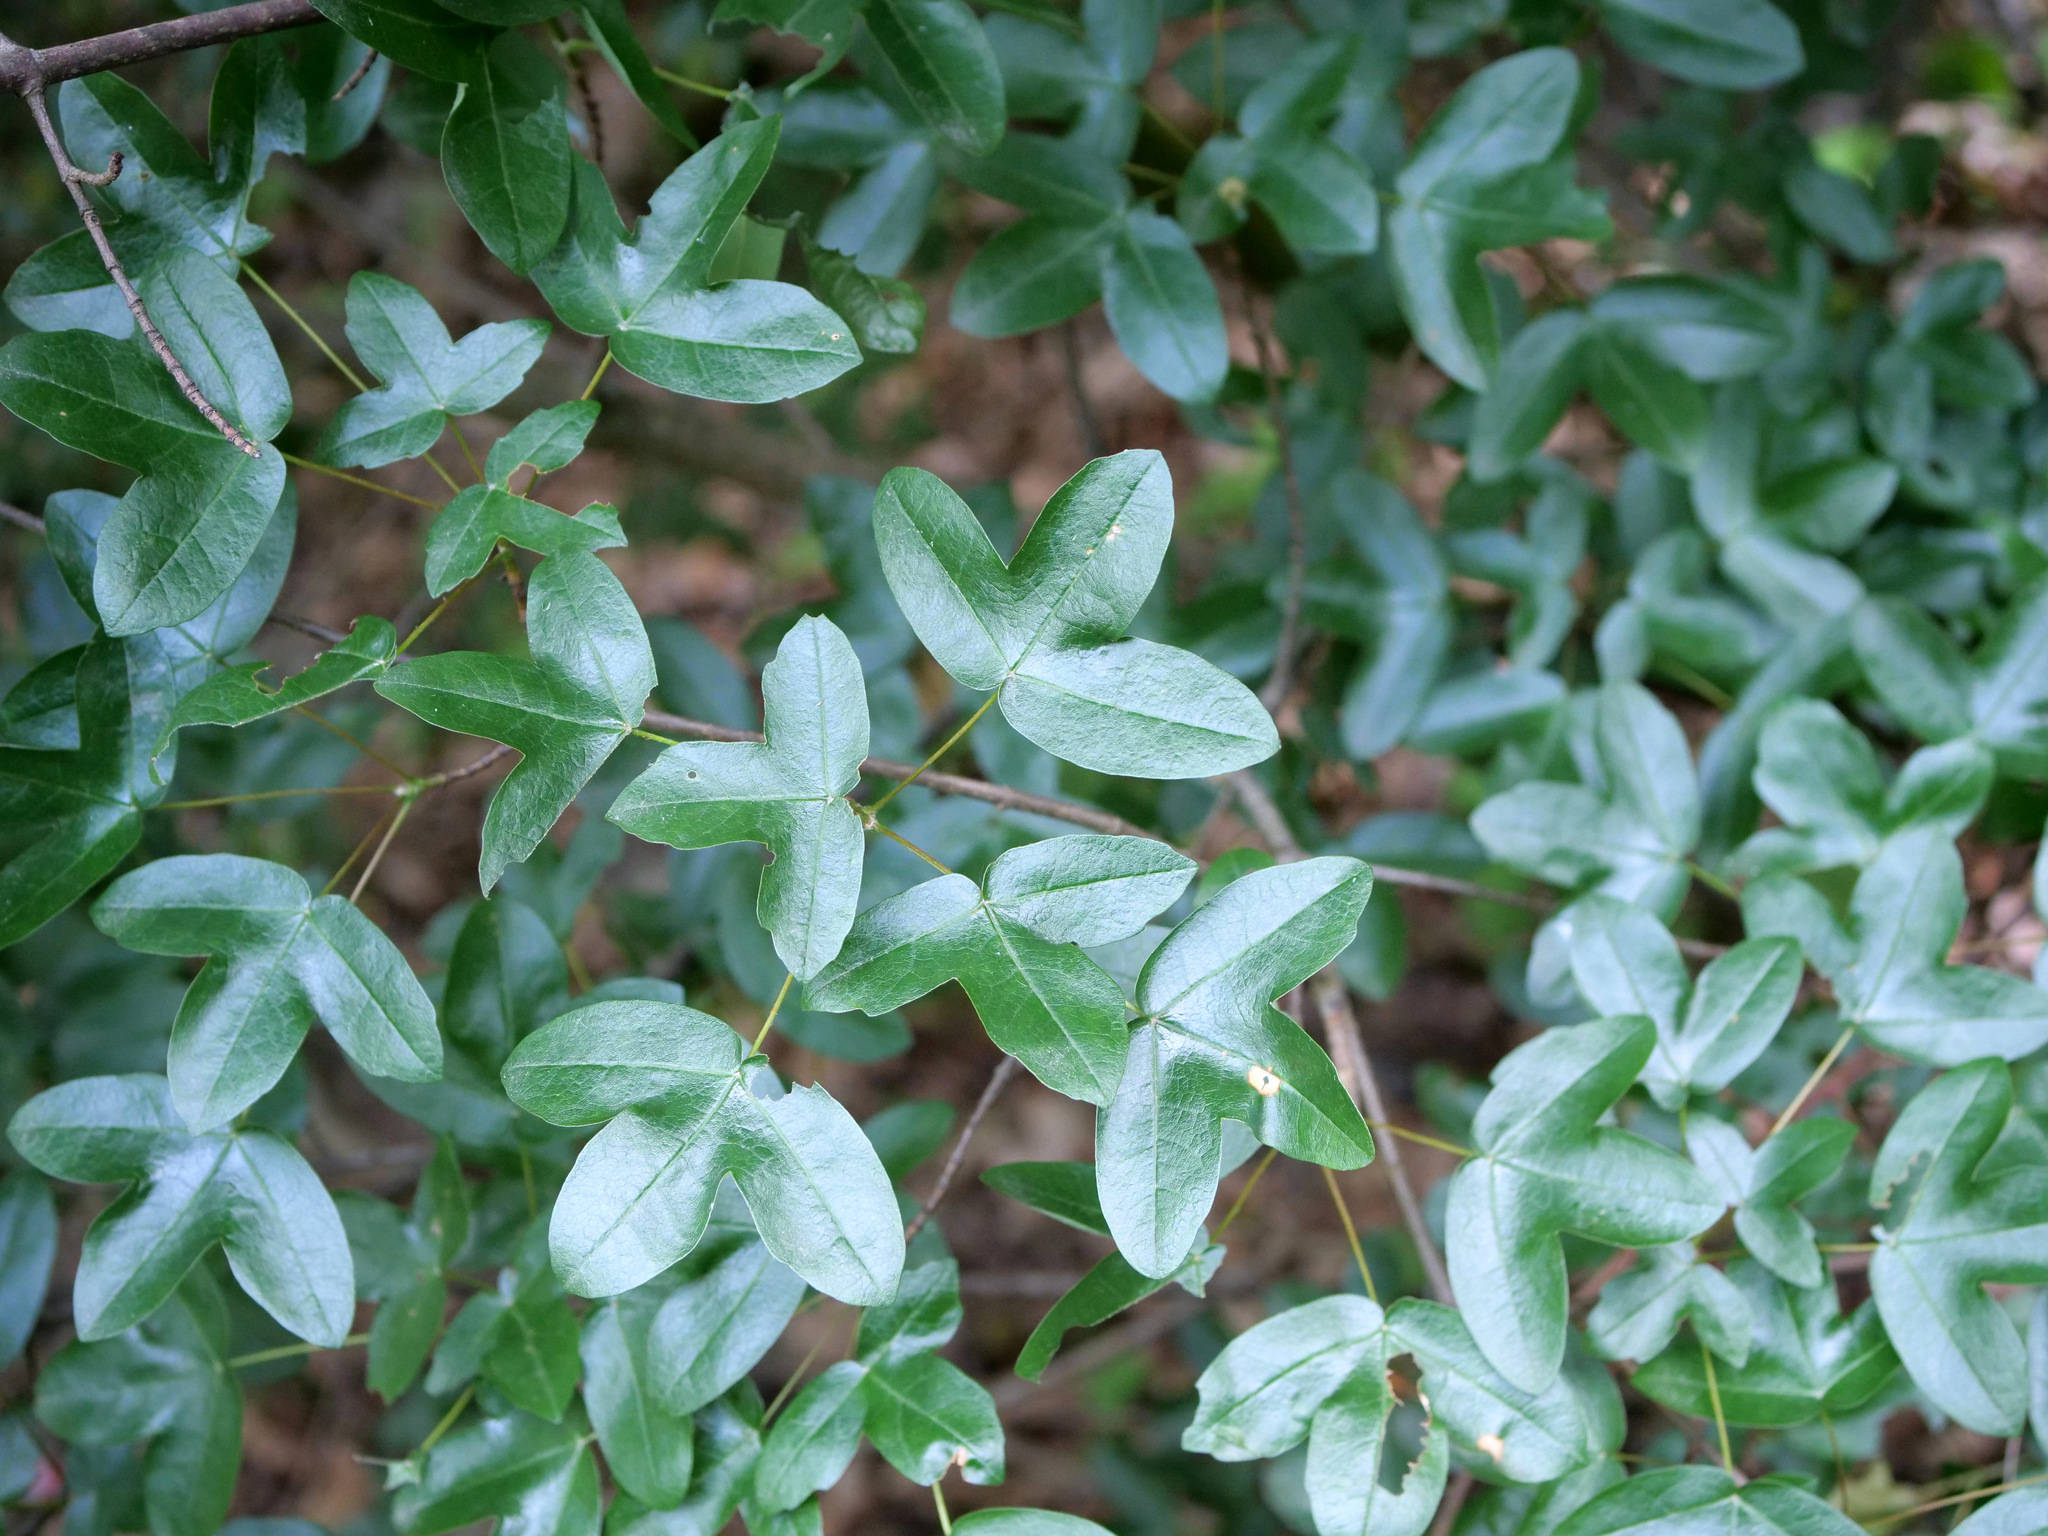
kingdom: Plantae
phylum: Tracheophyta
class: Magnoliopsida
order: Sapindales
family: Sapindaceae
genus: Acer
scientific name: Acer monspessulanum
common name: Montpellier maple
